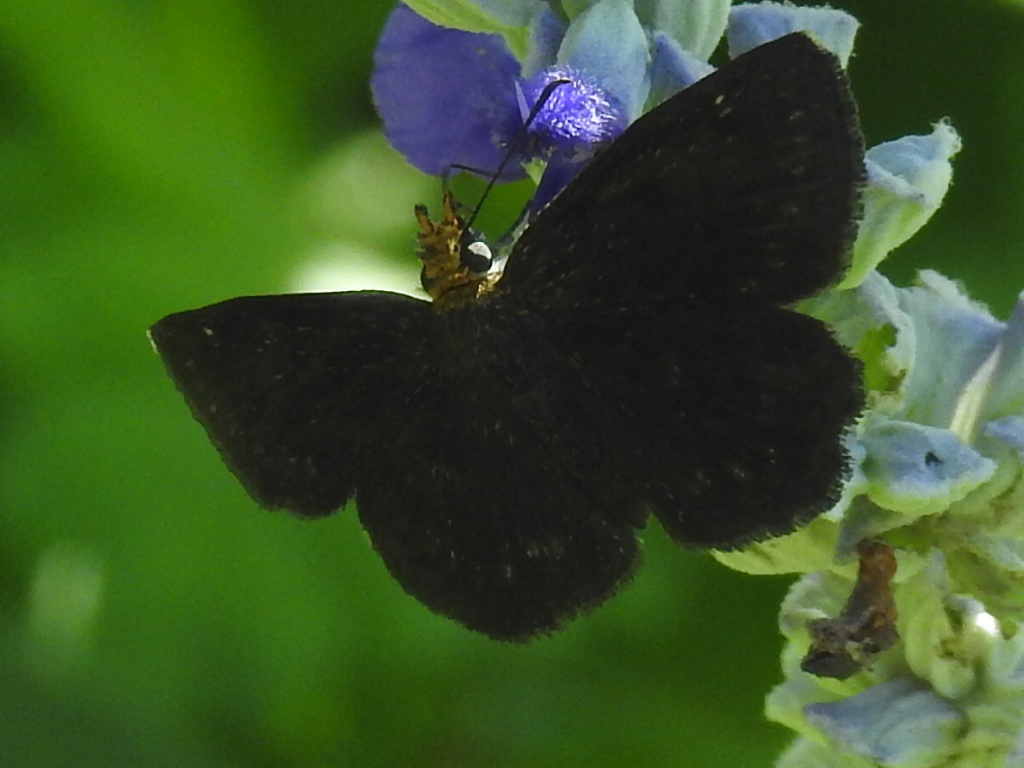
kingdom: Animalia
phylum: Arthropoda
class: Insecta
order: Lepidoptera
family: Hesperiidae
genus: Staphylus
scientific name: Staphylus ceos
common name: Golden-headed scallopwing
